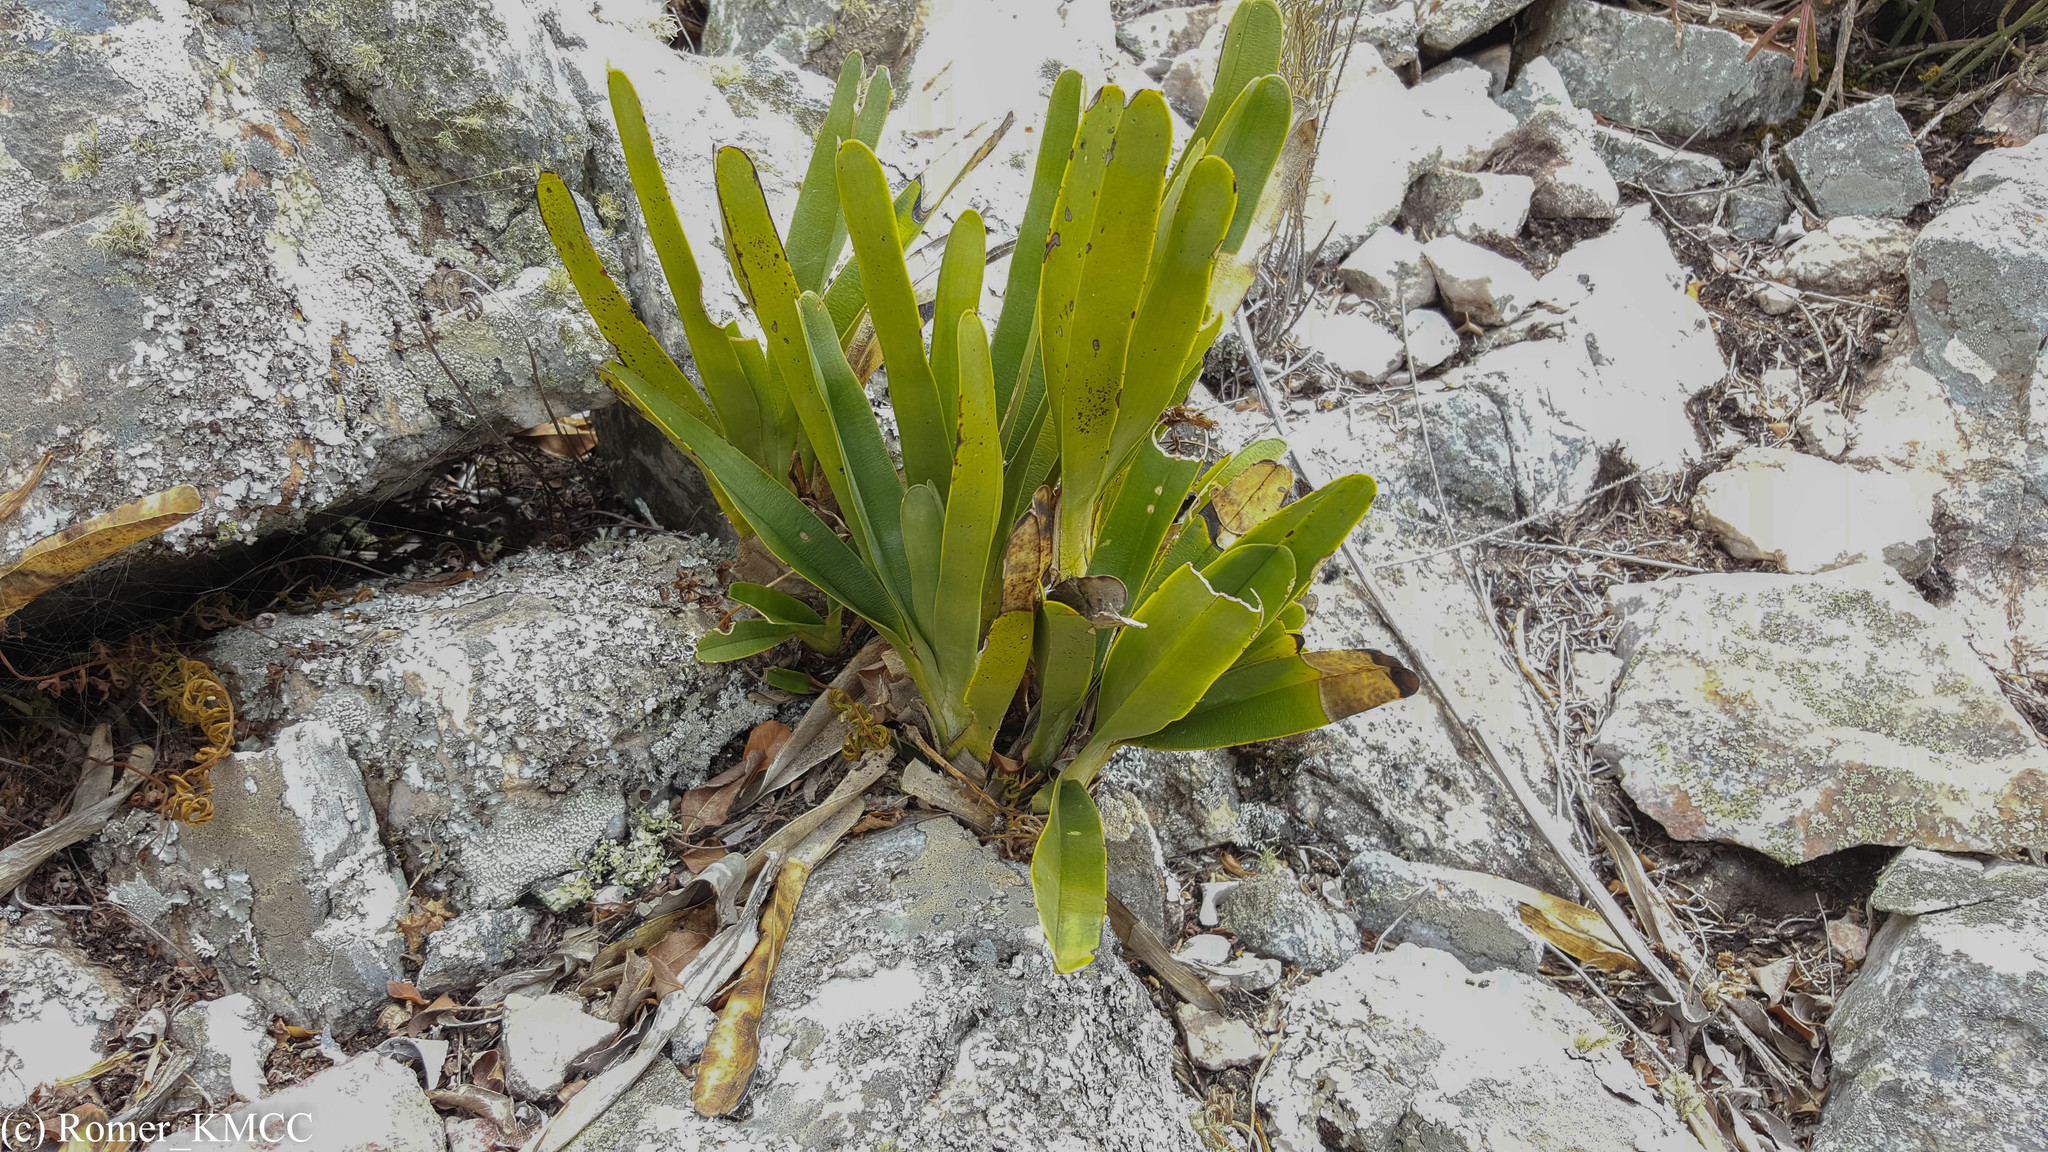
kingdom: Plantae
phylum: Tracheophyta
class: Liliopsida
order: Asparagales
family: Orchidaceae
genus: Angraecum
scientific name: Angraecum magdalenae
